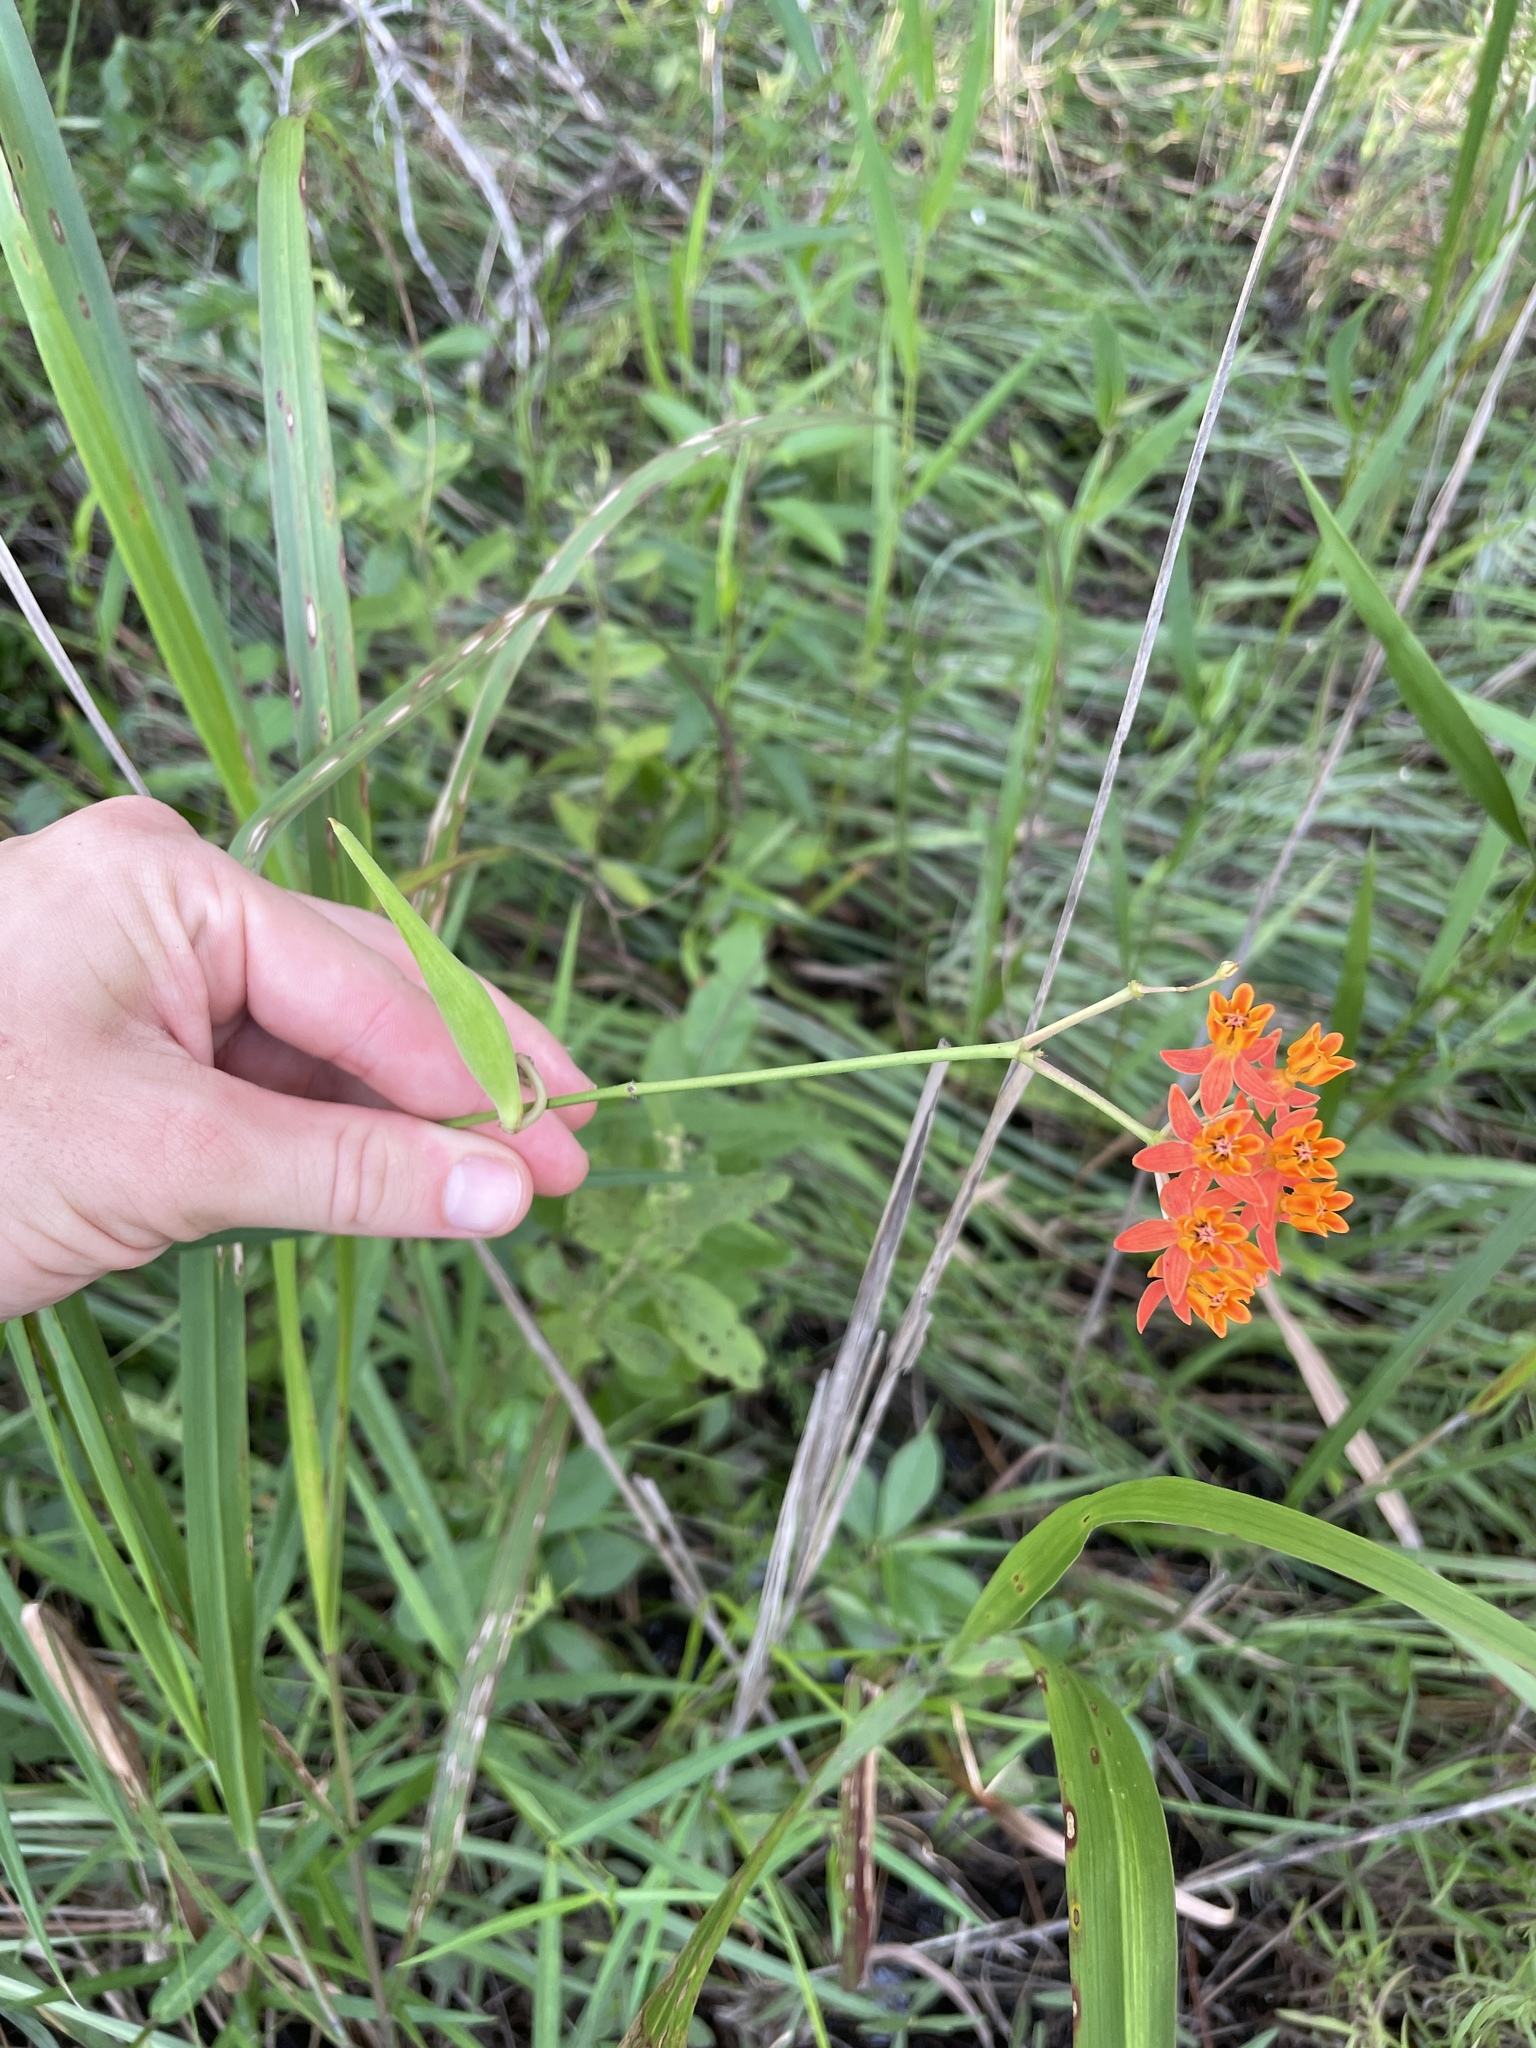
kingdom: Plantae
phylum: Tracheophyta
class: Magnoliopsida
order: Gentianales
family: Apocynaceae
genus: Asclepias
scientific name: Asclepias lanceolata
